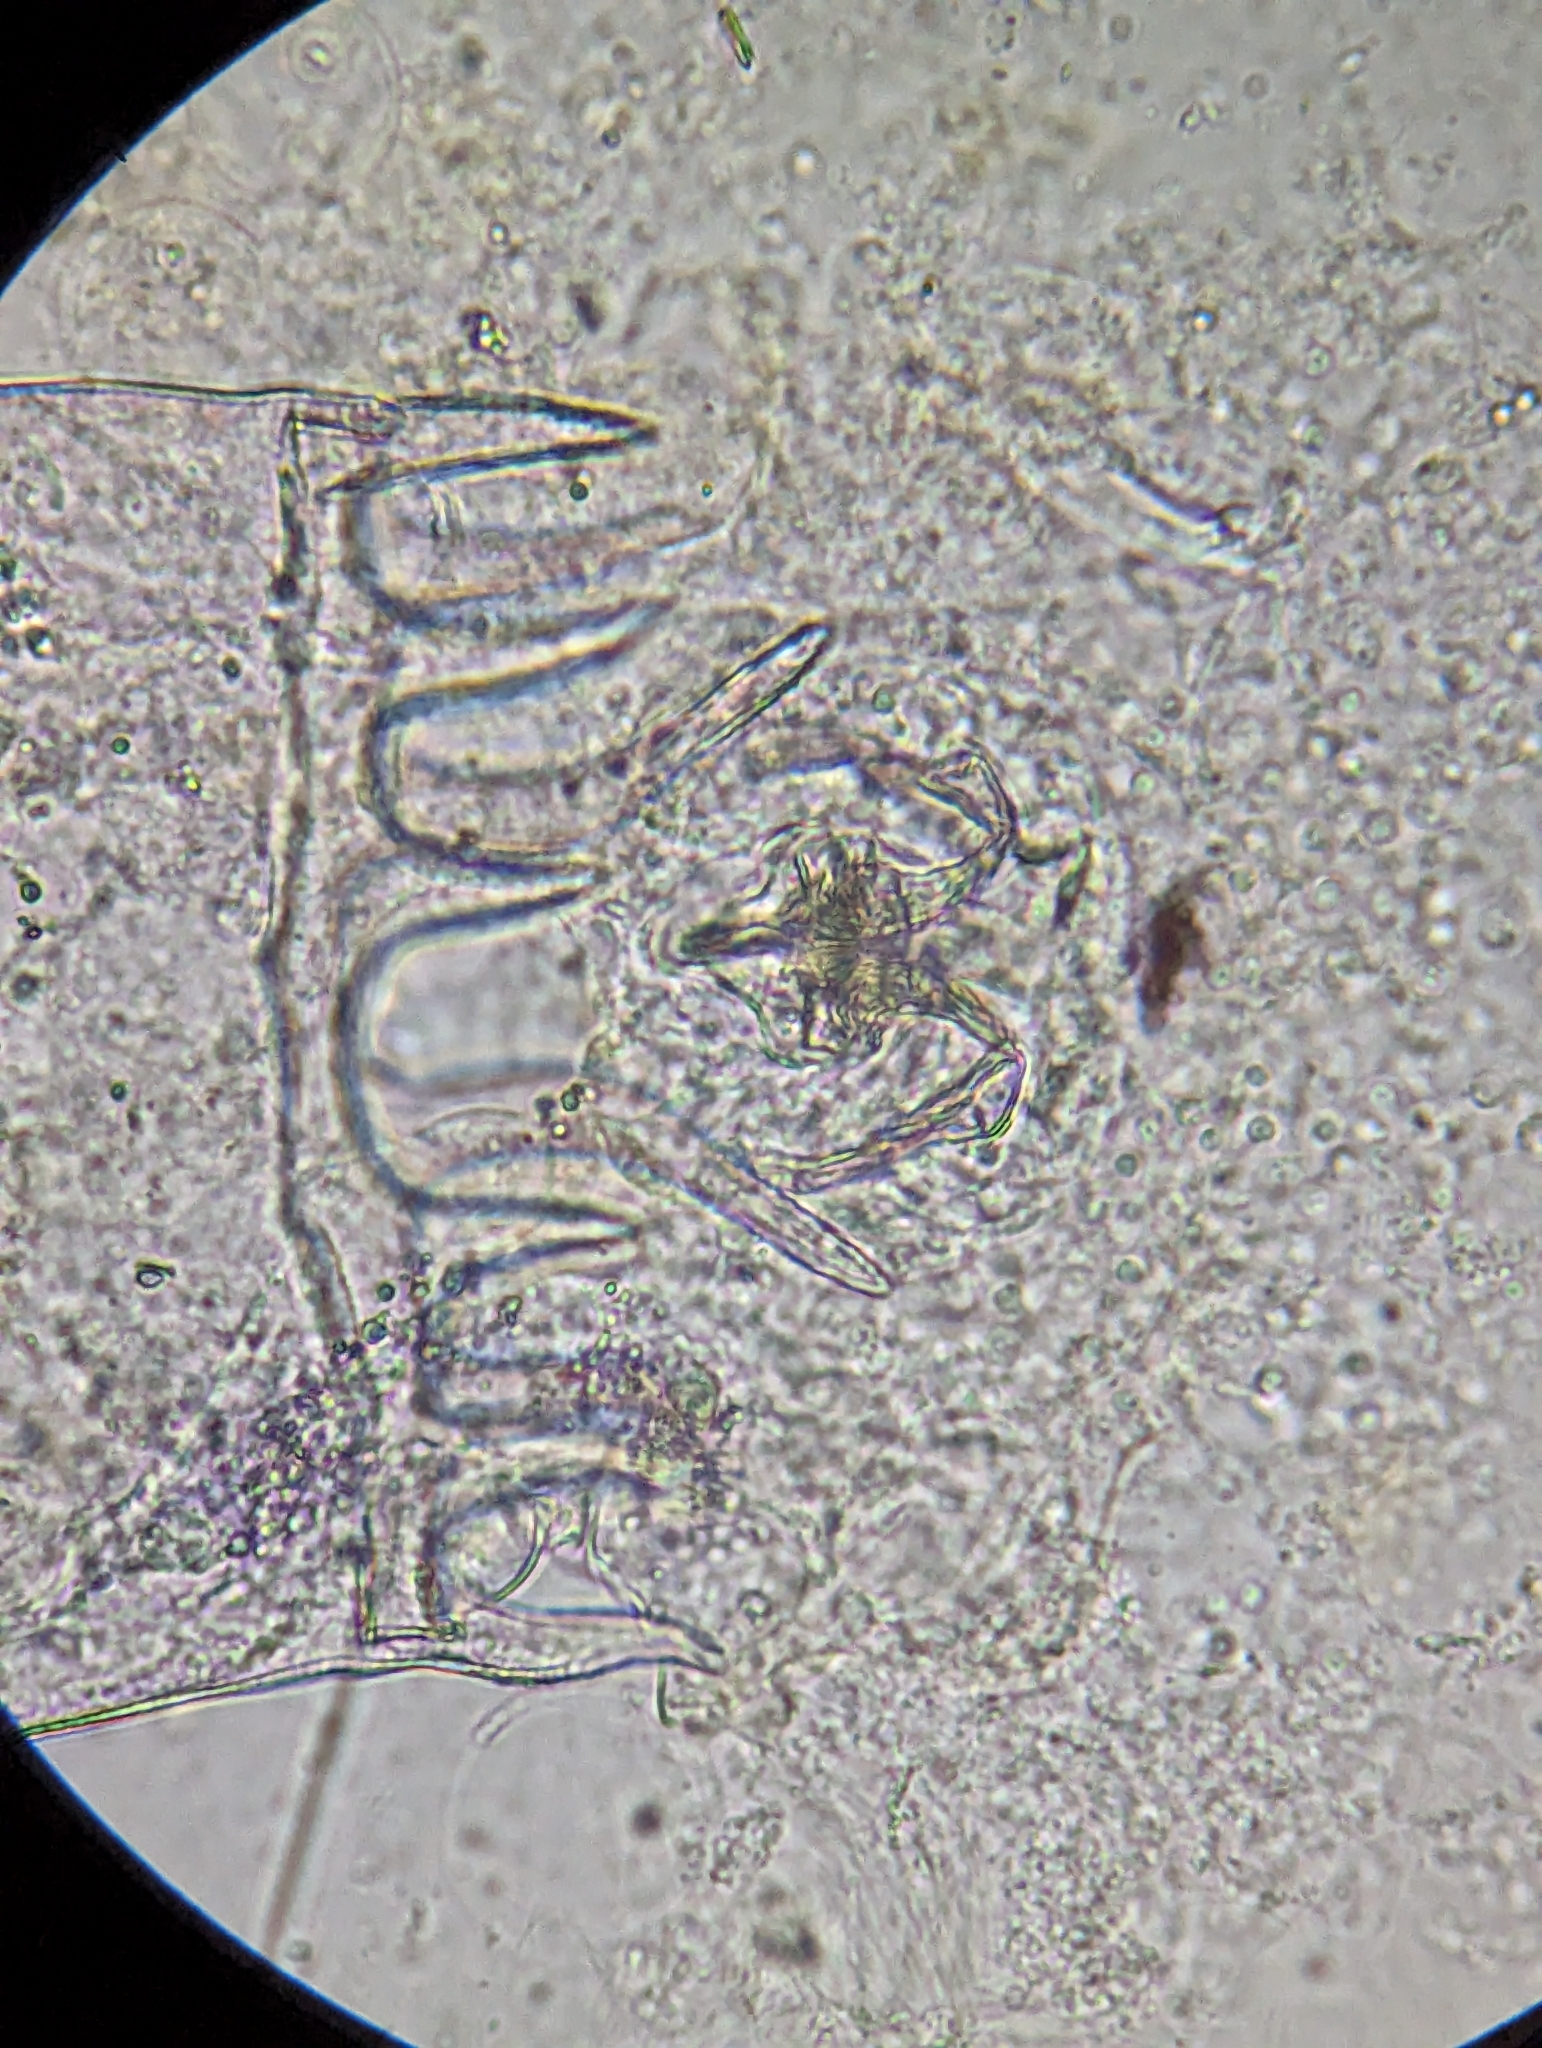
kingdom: Animalia
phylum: Rotifera
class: Eurotatoria
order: Ploima
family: Brachionidae
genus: Plationus
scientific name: Plationus patulus
